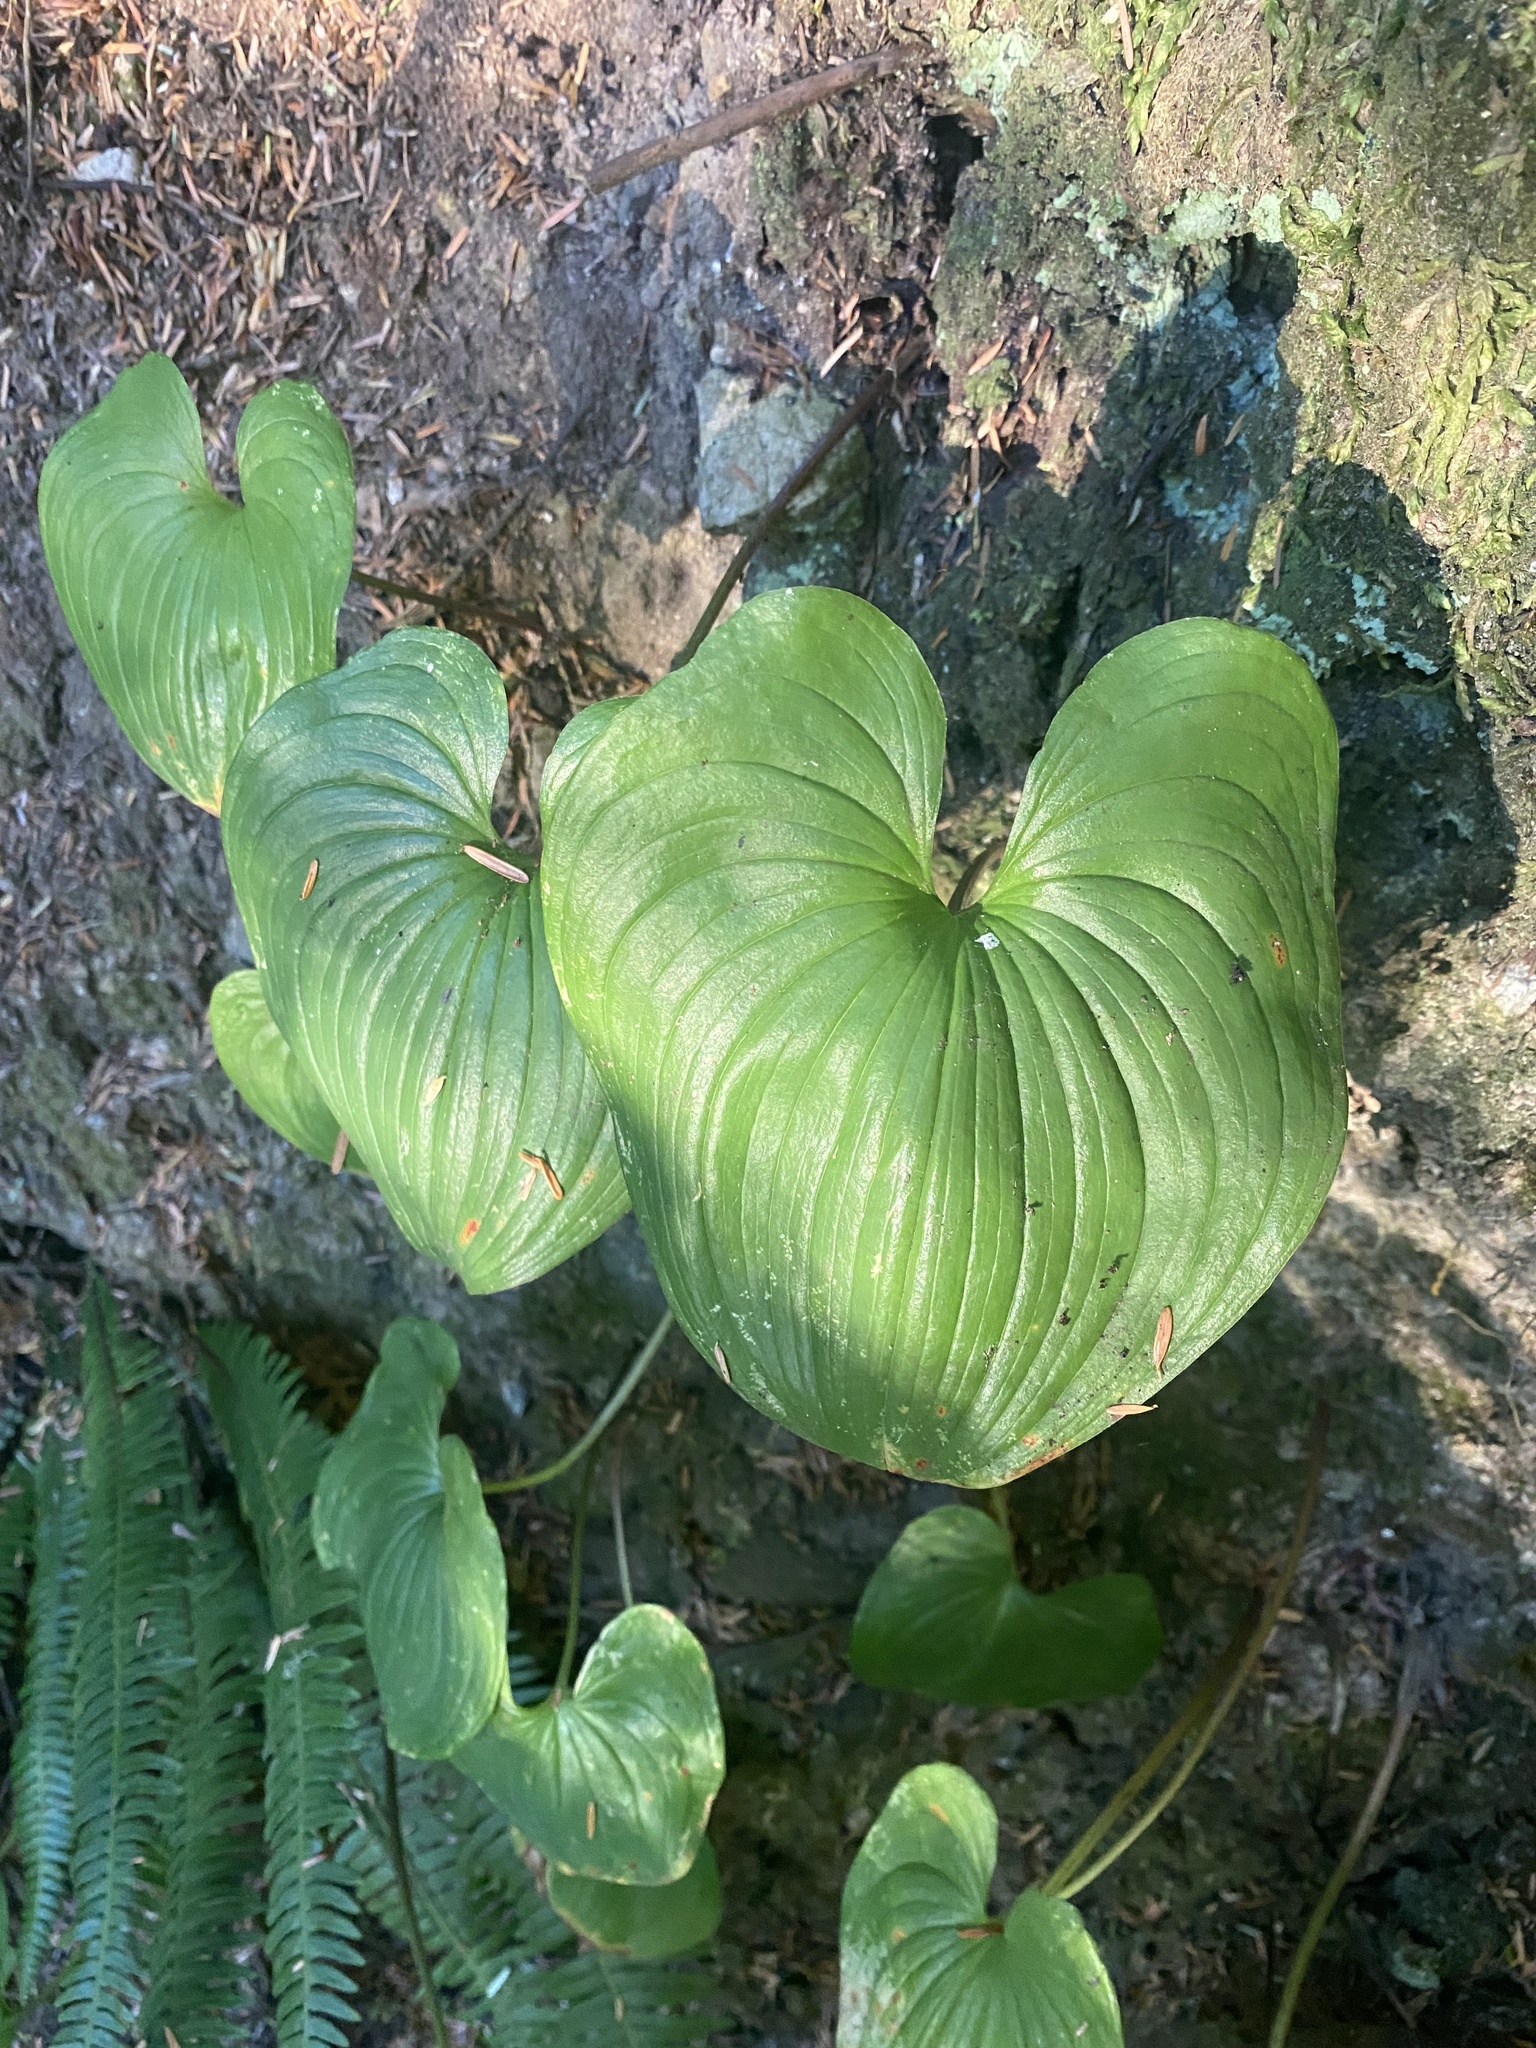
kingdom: Plantae
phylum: Tracheophyta
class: Liliopsida
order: Asparagales
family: Asparagaceae
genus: Maianthemum
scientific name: Maianthemum dilatatum
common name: False lily-of-the-valley
